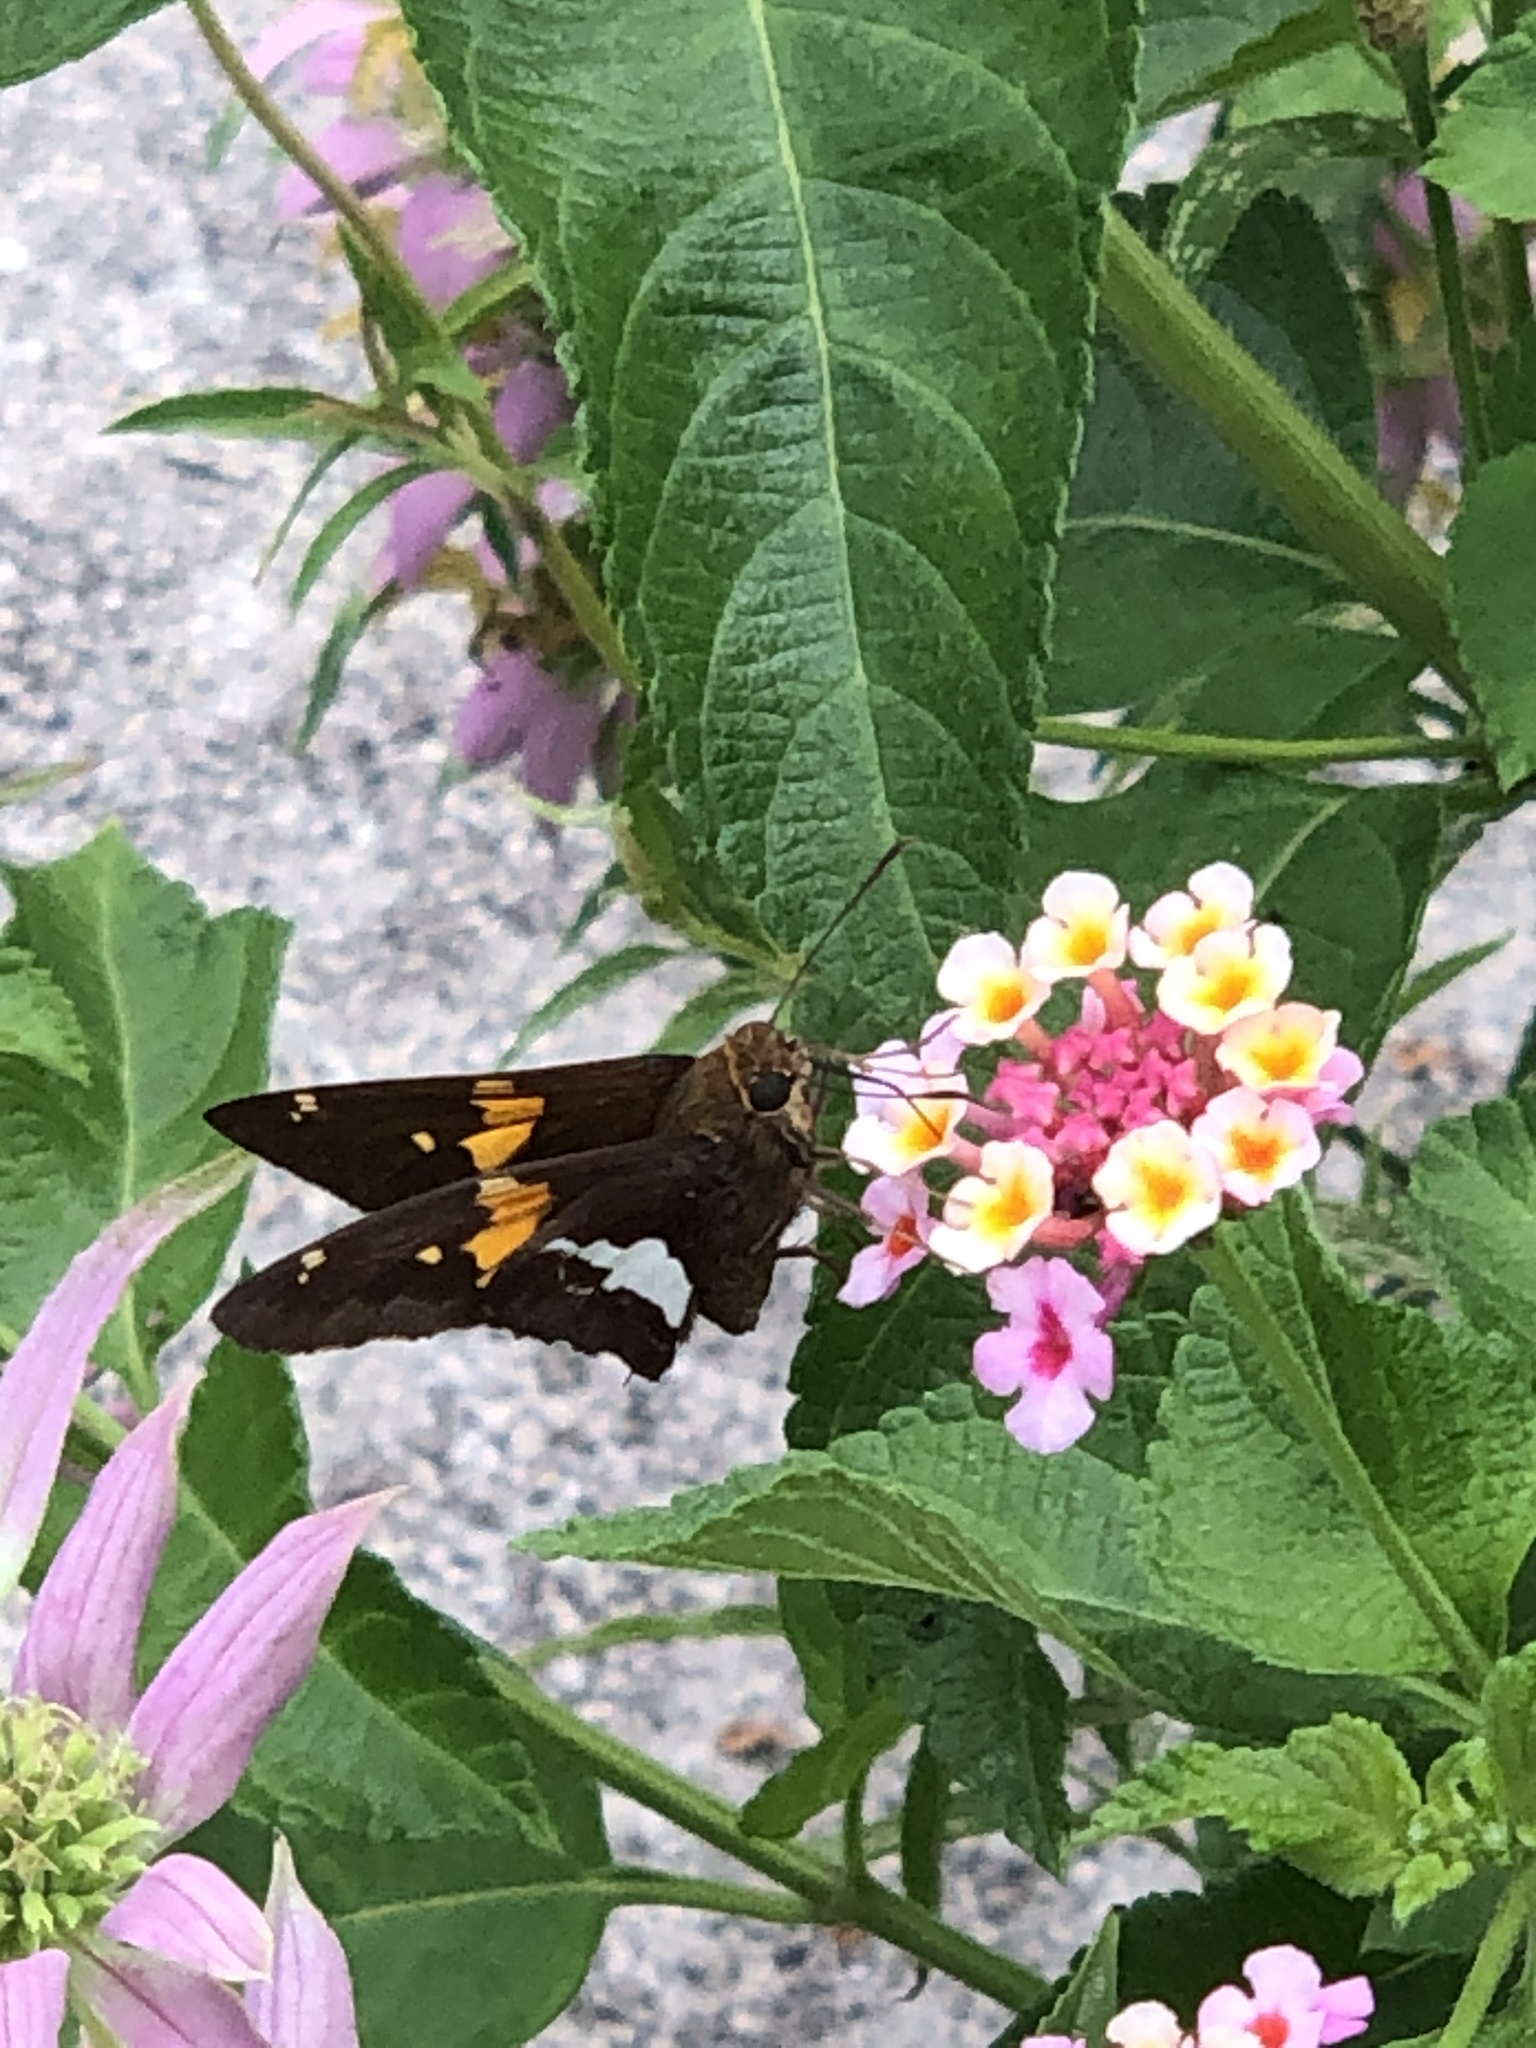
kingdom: Animalia
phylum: Arthropoda
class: Insecta
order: Lepidoptera
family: Hesperiidae
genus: Epargyreus
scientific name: Epargyreus clarus
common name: Silver-spotted skipper
